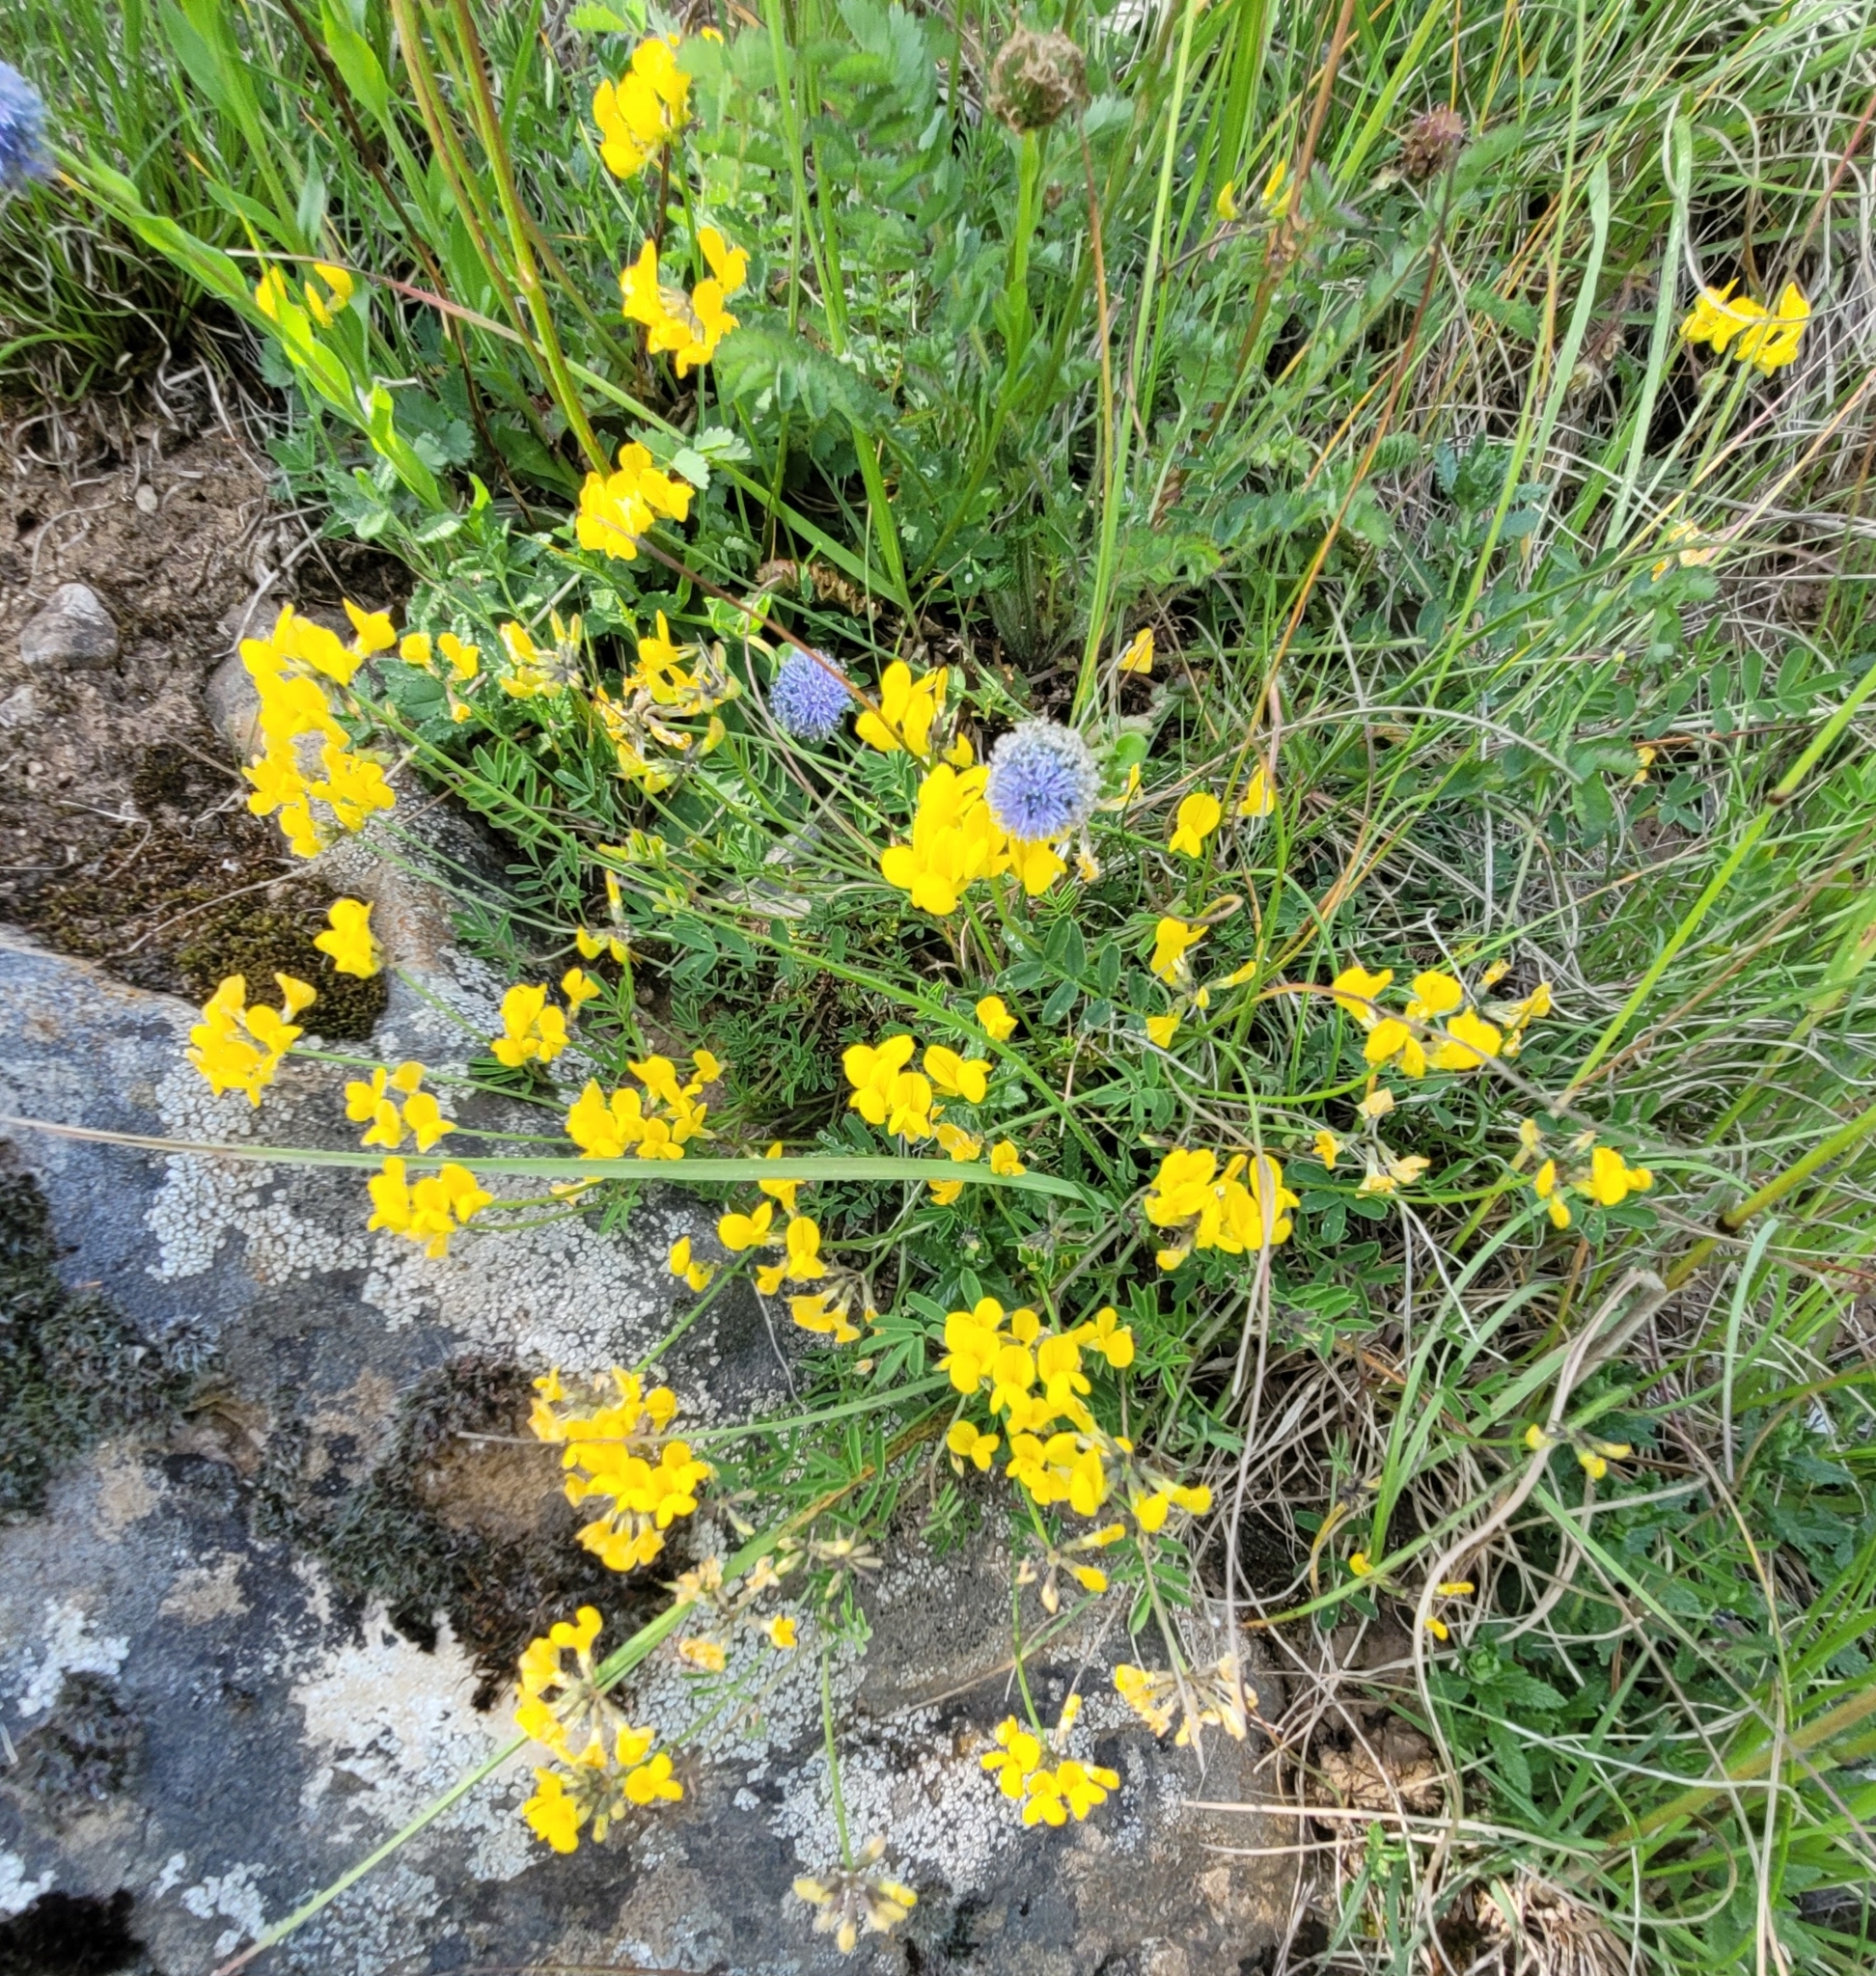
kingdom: Plantae
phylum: Tracheophyta
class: Magnoliopsida
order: Fabales
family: Fabaceae
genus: Hippocrepis
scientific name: Hippocrepis comosa
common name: Horseshoe vetch
